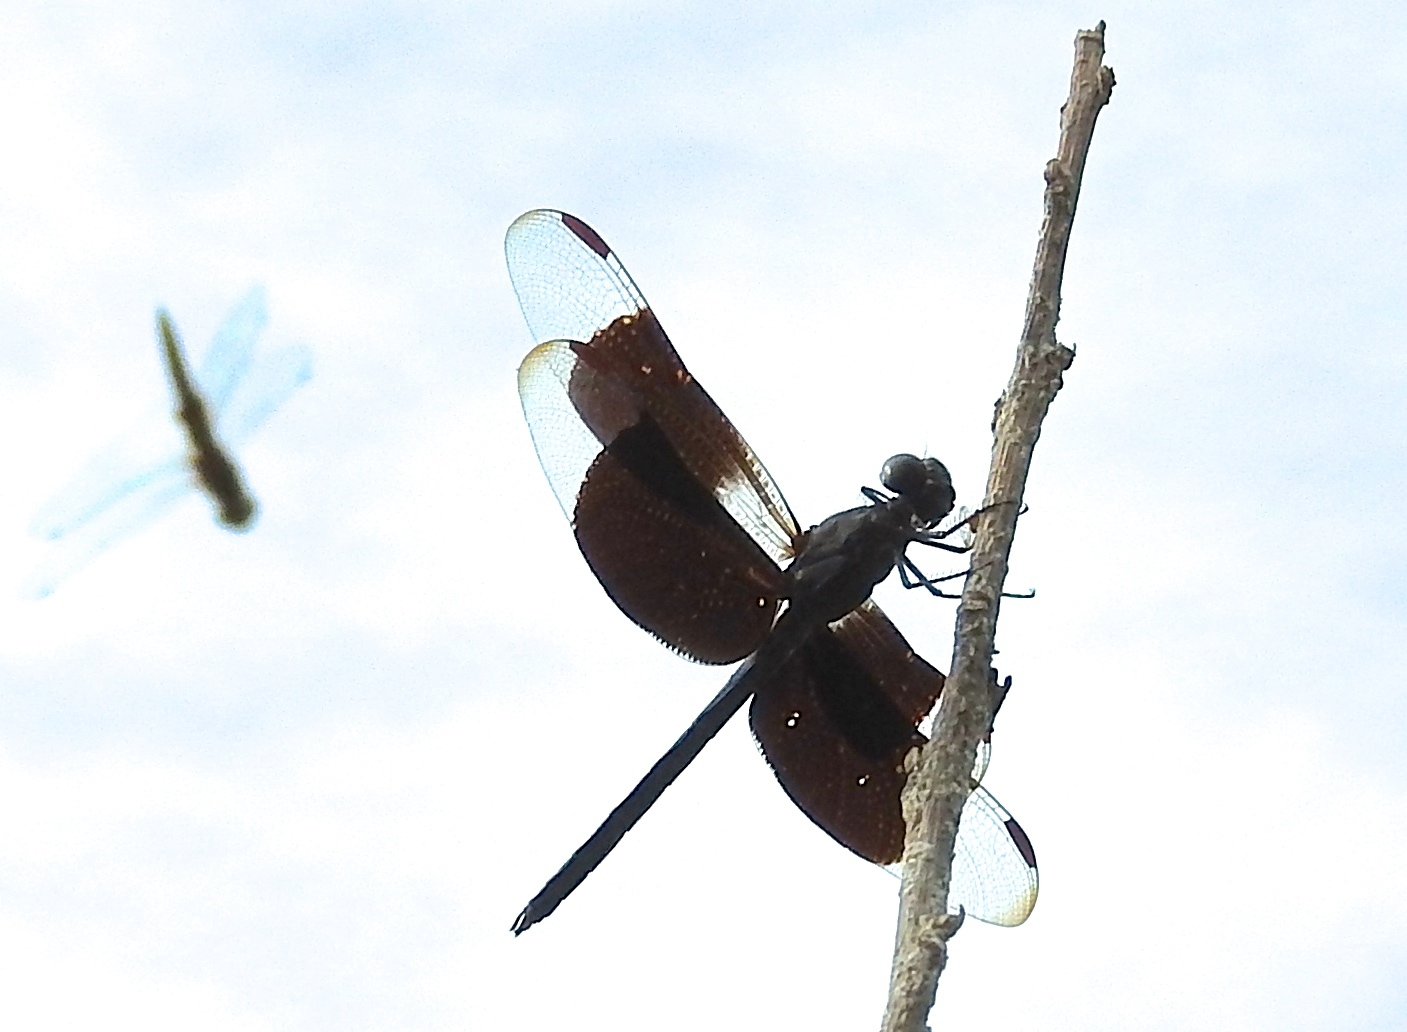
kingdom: Animalia
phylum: Arthropoda
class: Insecta
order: Odonata
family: Libellulidae
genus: Erythrodiplax
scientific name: Erythrodiplax funerea
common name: Black-winged dragonlet
